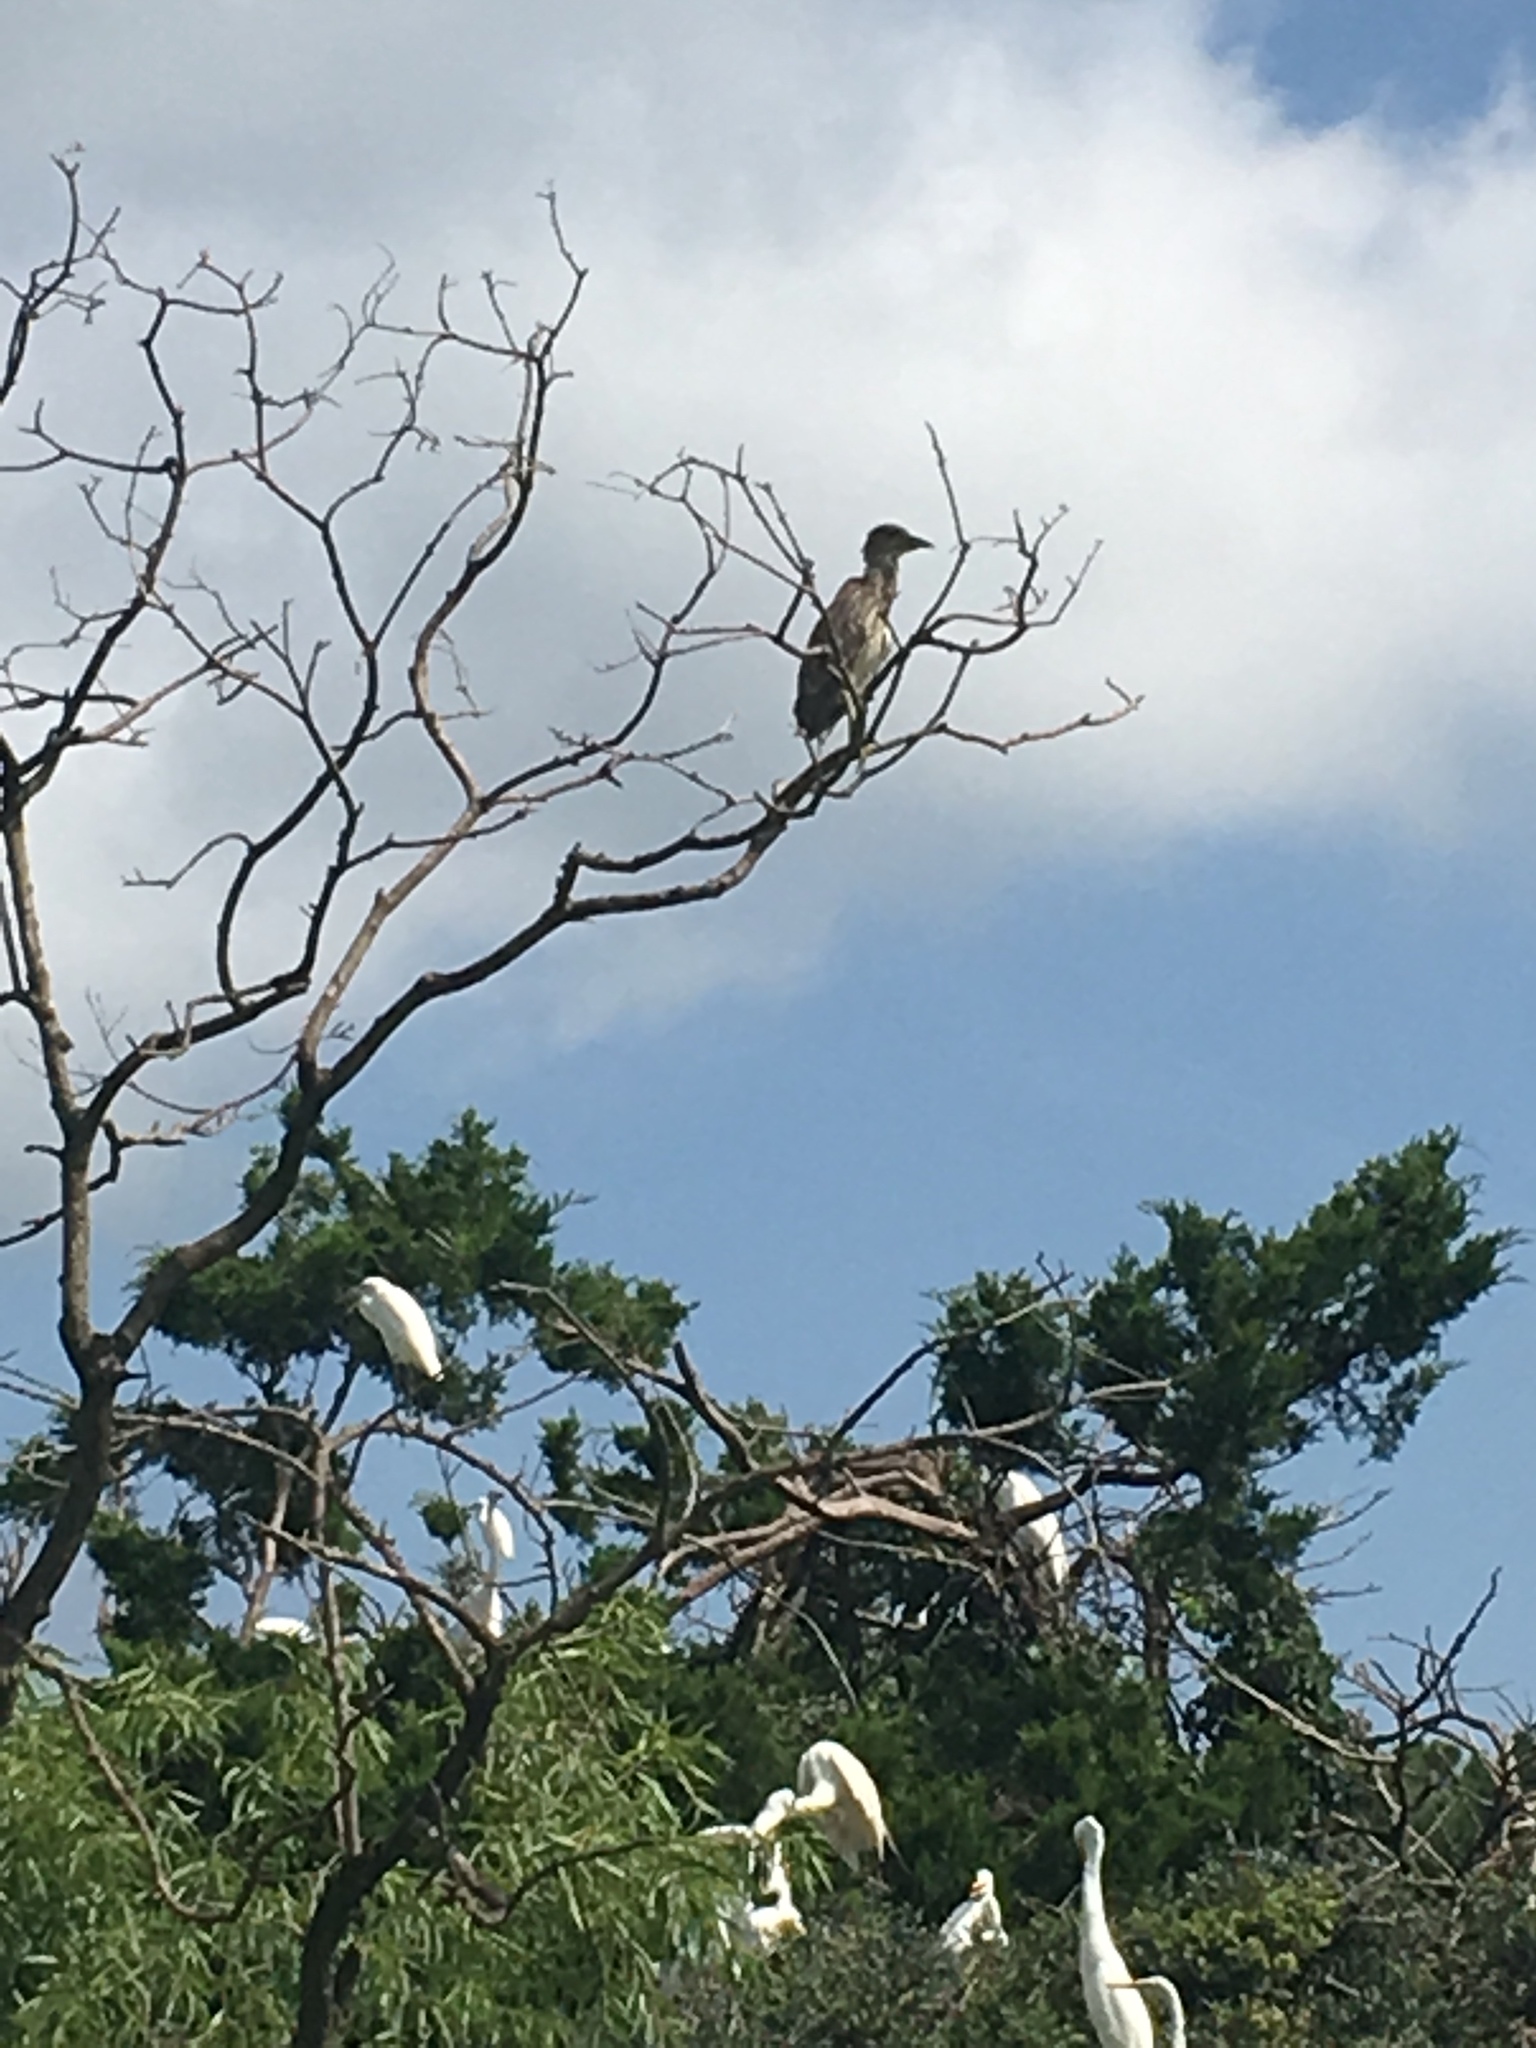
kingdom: Animalia
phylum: Chordata
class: Aves
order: Pelecaniformes
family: Ardeidae
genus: Nycticorax
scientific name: Nycticorax nycticorax
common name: Black-crowned night heron
